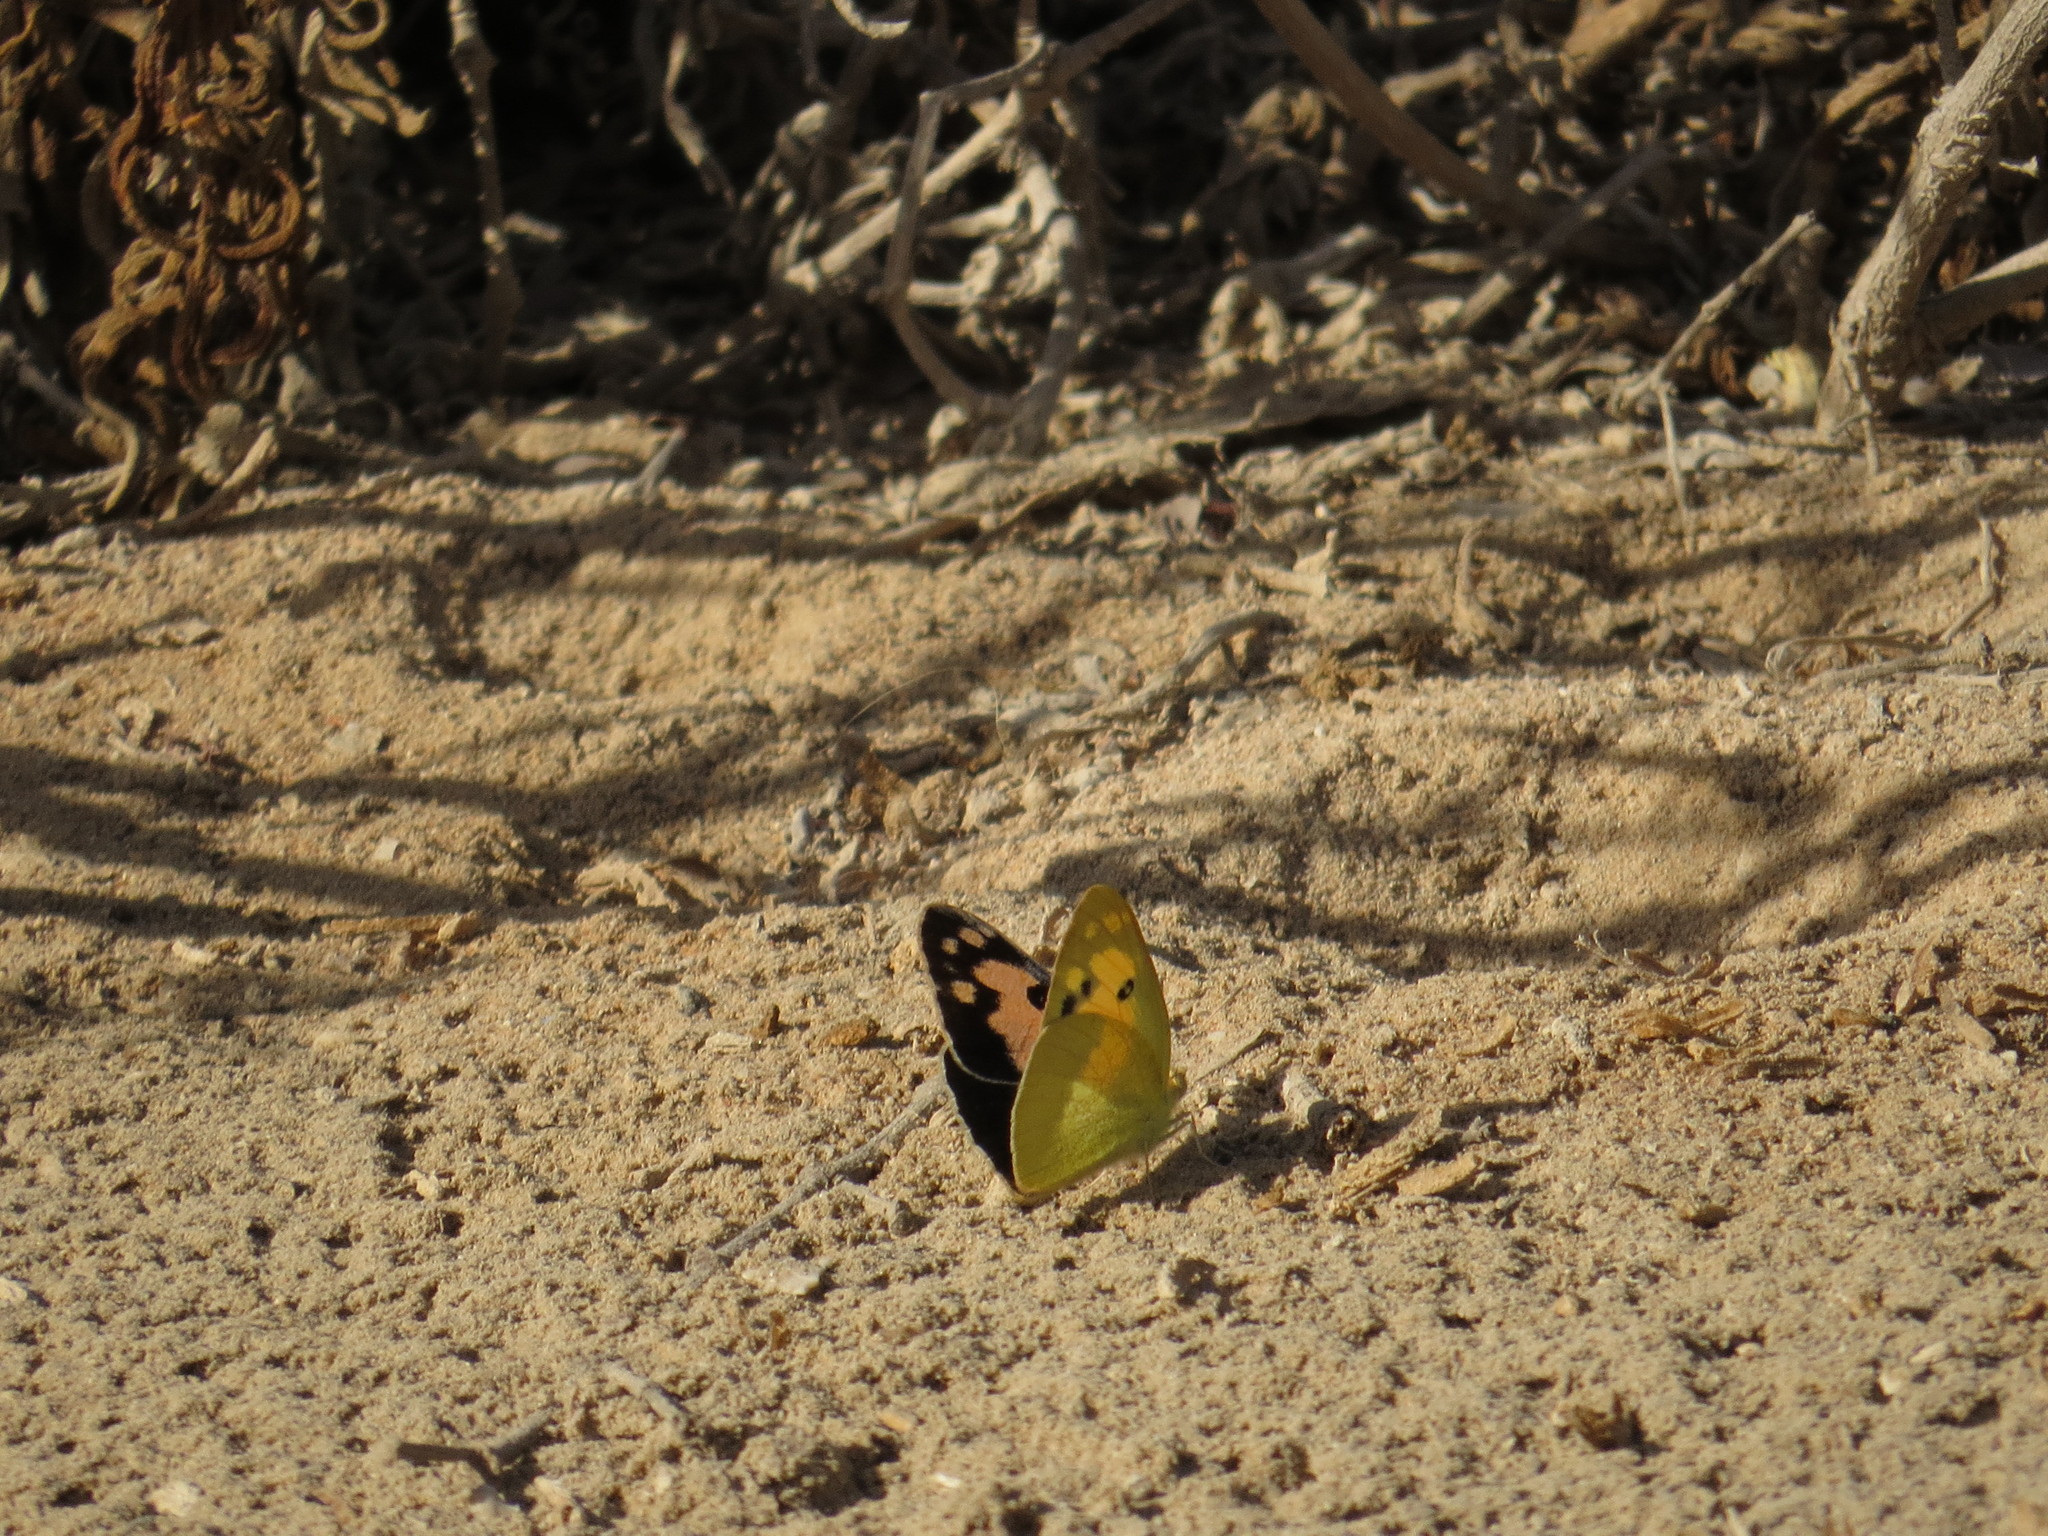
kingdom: Animalia
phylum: Arthropoda
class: Insecta
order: Lepidoptera
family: Pieridae
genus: Colotis
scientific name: Colotis phisadia
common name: Blue spotted arab
